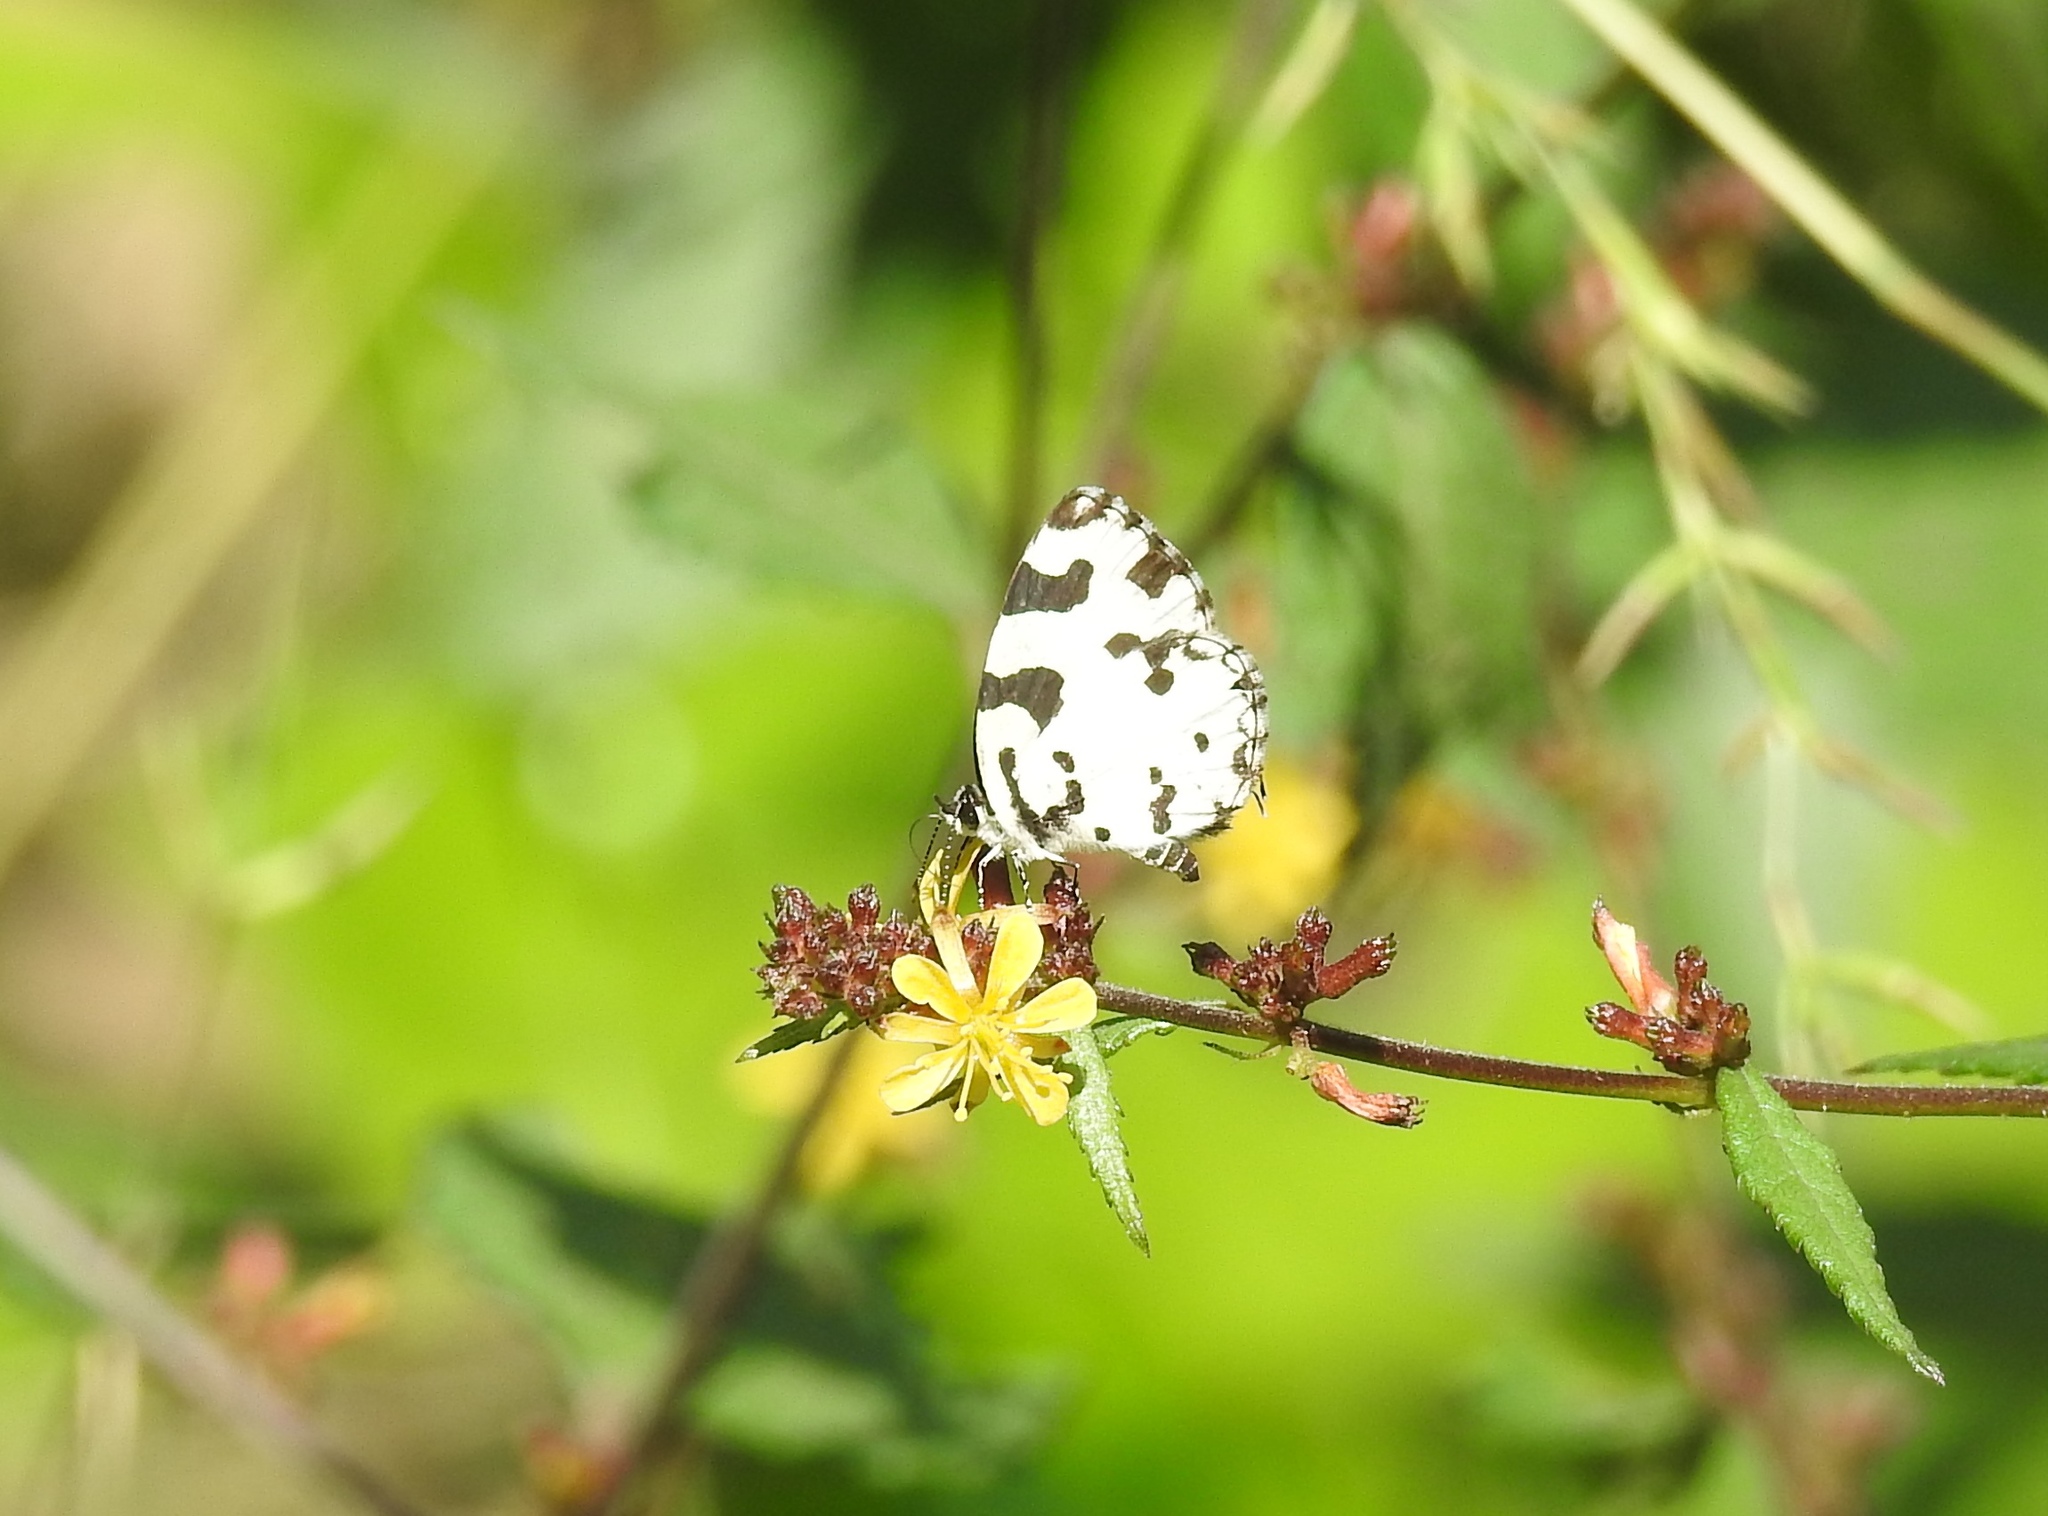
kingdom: Animalia
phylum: Arthropoda
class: Insecta
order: Lepidoptera
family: Lycaenidae
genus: Caleta
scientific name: Caleta decidia
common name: Angled pierrot
